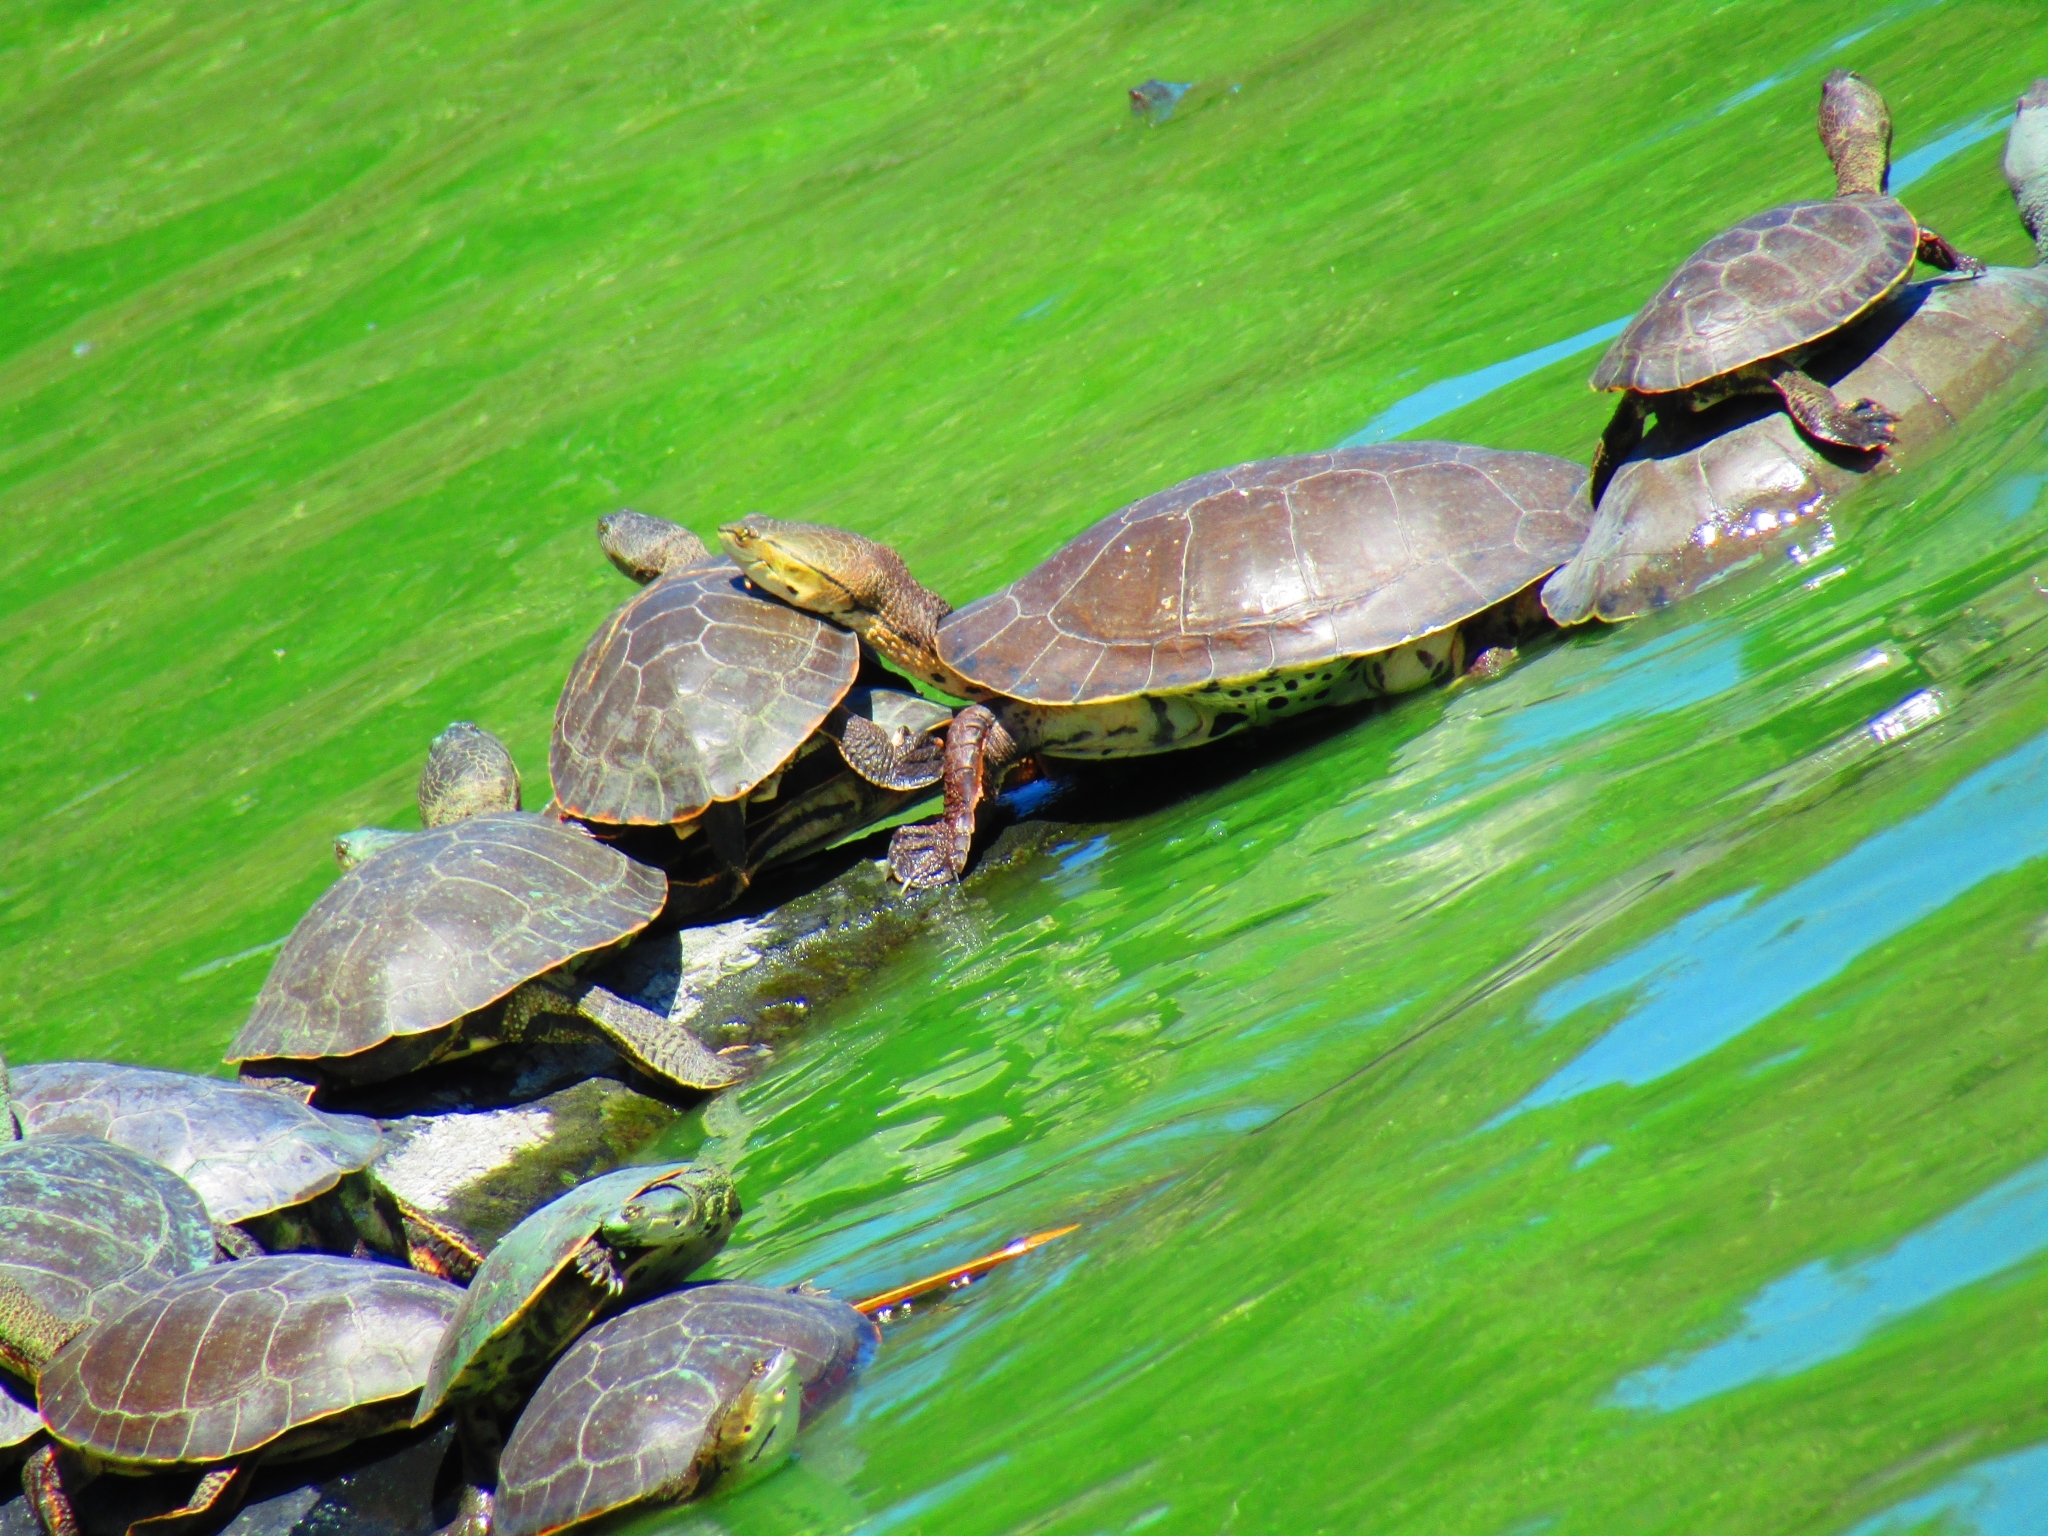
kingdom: Animalia
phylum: Chordata
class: Testudines
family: Chelidae
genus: Phrynops
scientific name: Phrynops hilarii
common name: Side-necked turtle of saint hillaire
